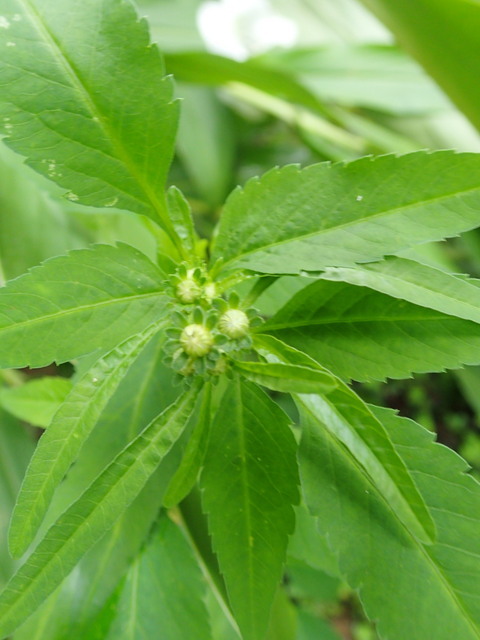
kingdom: Plantae
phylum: Tracheophyta
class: Magnoliopsida
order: Asterales
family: Asteraceae
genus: Bidens
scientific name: Bidens alba
